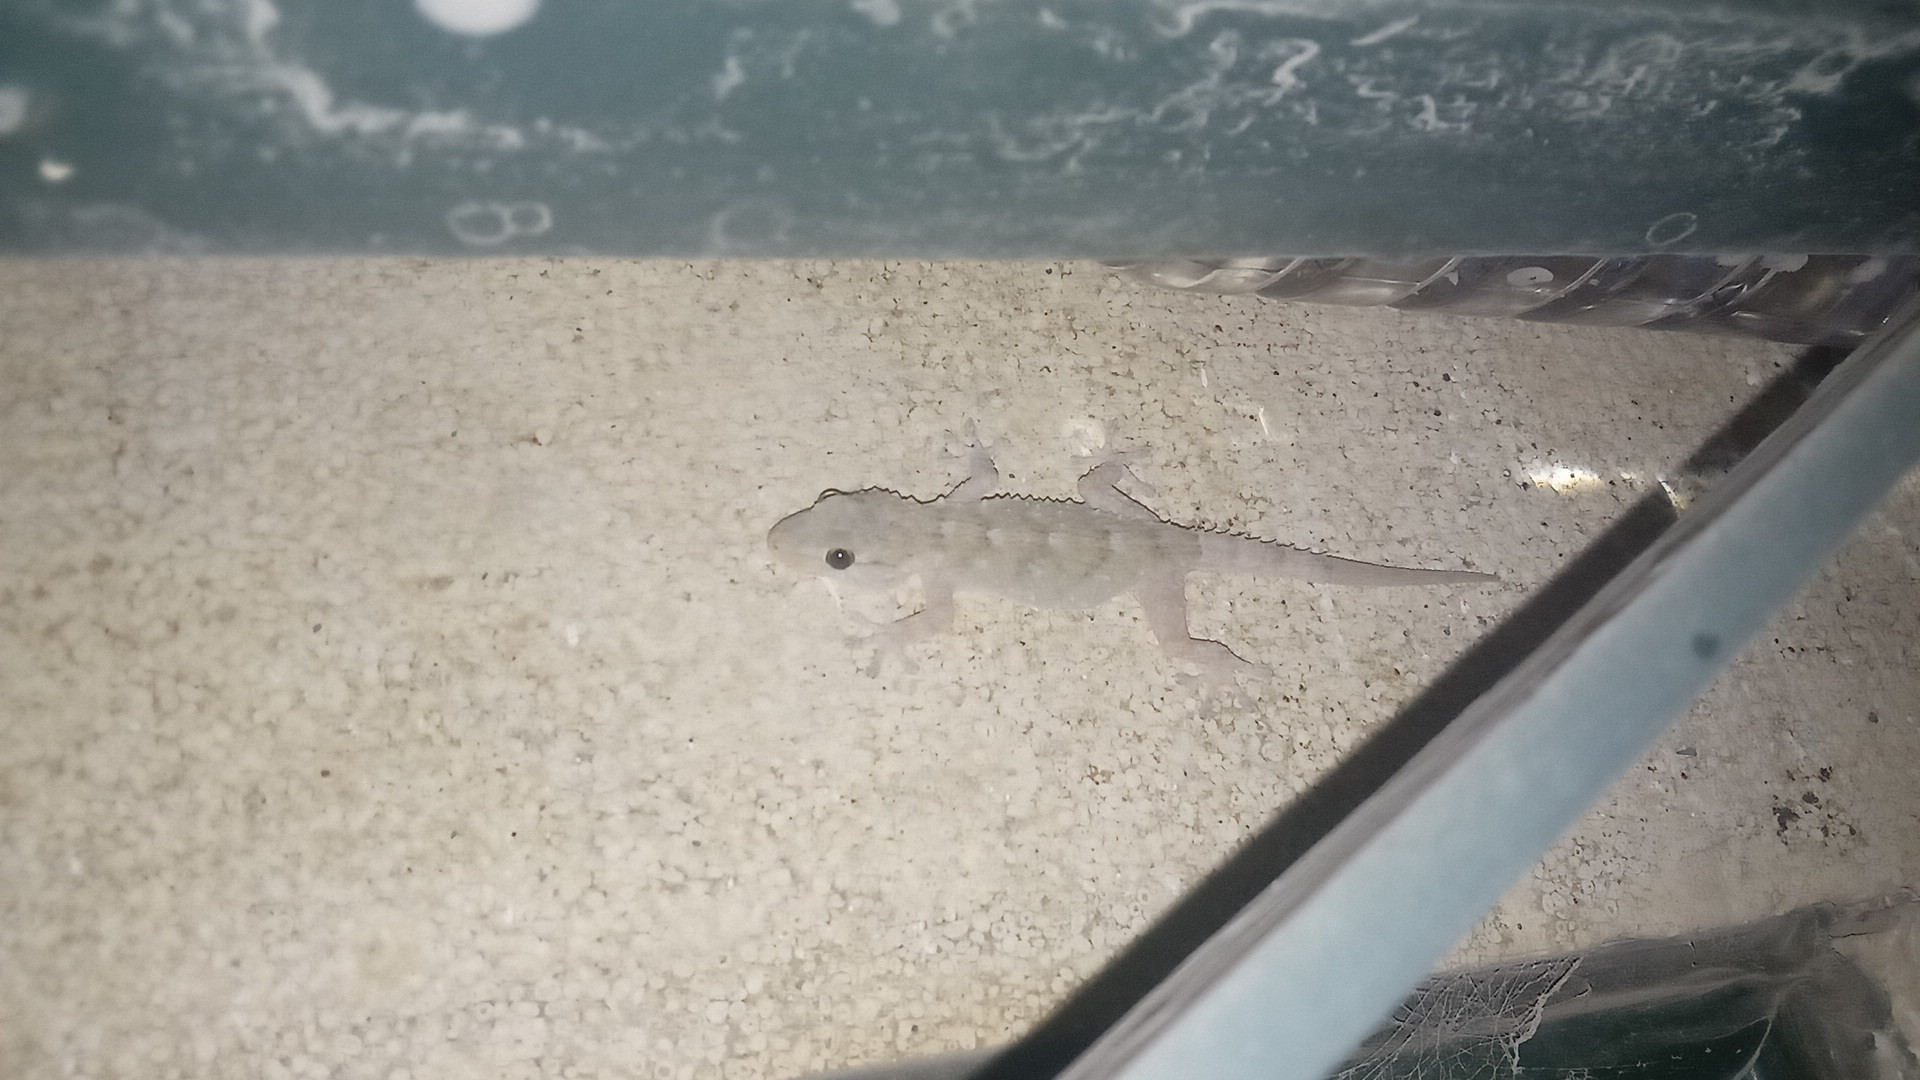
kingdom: Animalia
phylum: Chordata
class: Squamata
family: Phyllodactylidae
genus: Tarentola
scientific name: Tarentola mauritanica
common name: Moorish gecko
